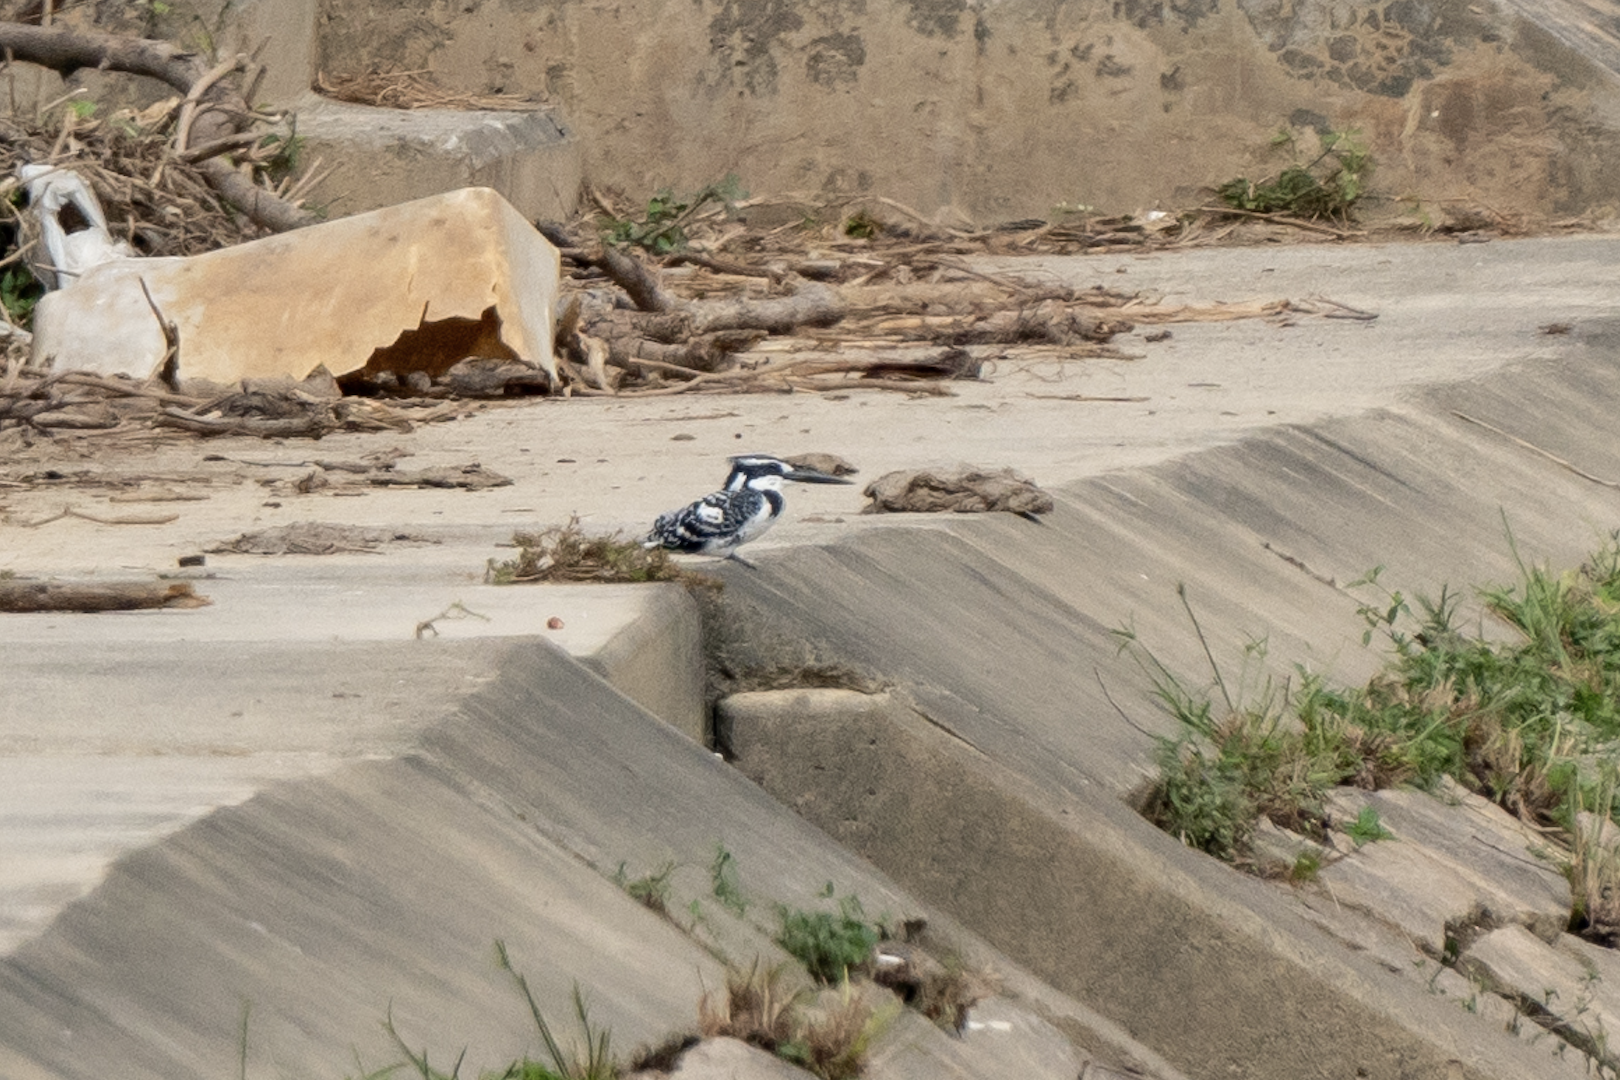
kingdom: Animalia
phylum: Chordata
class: Aves
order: Coraciiformes
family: Alcedinidae
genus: Ceryle
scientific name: Ceryle rudis
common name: Pied kingfisher
